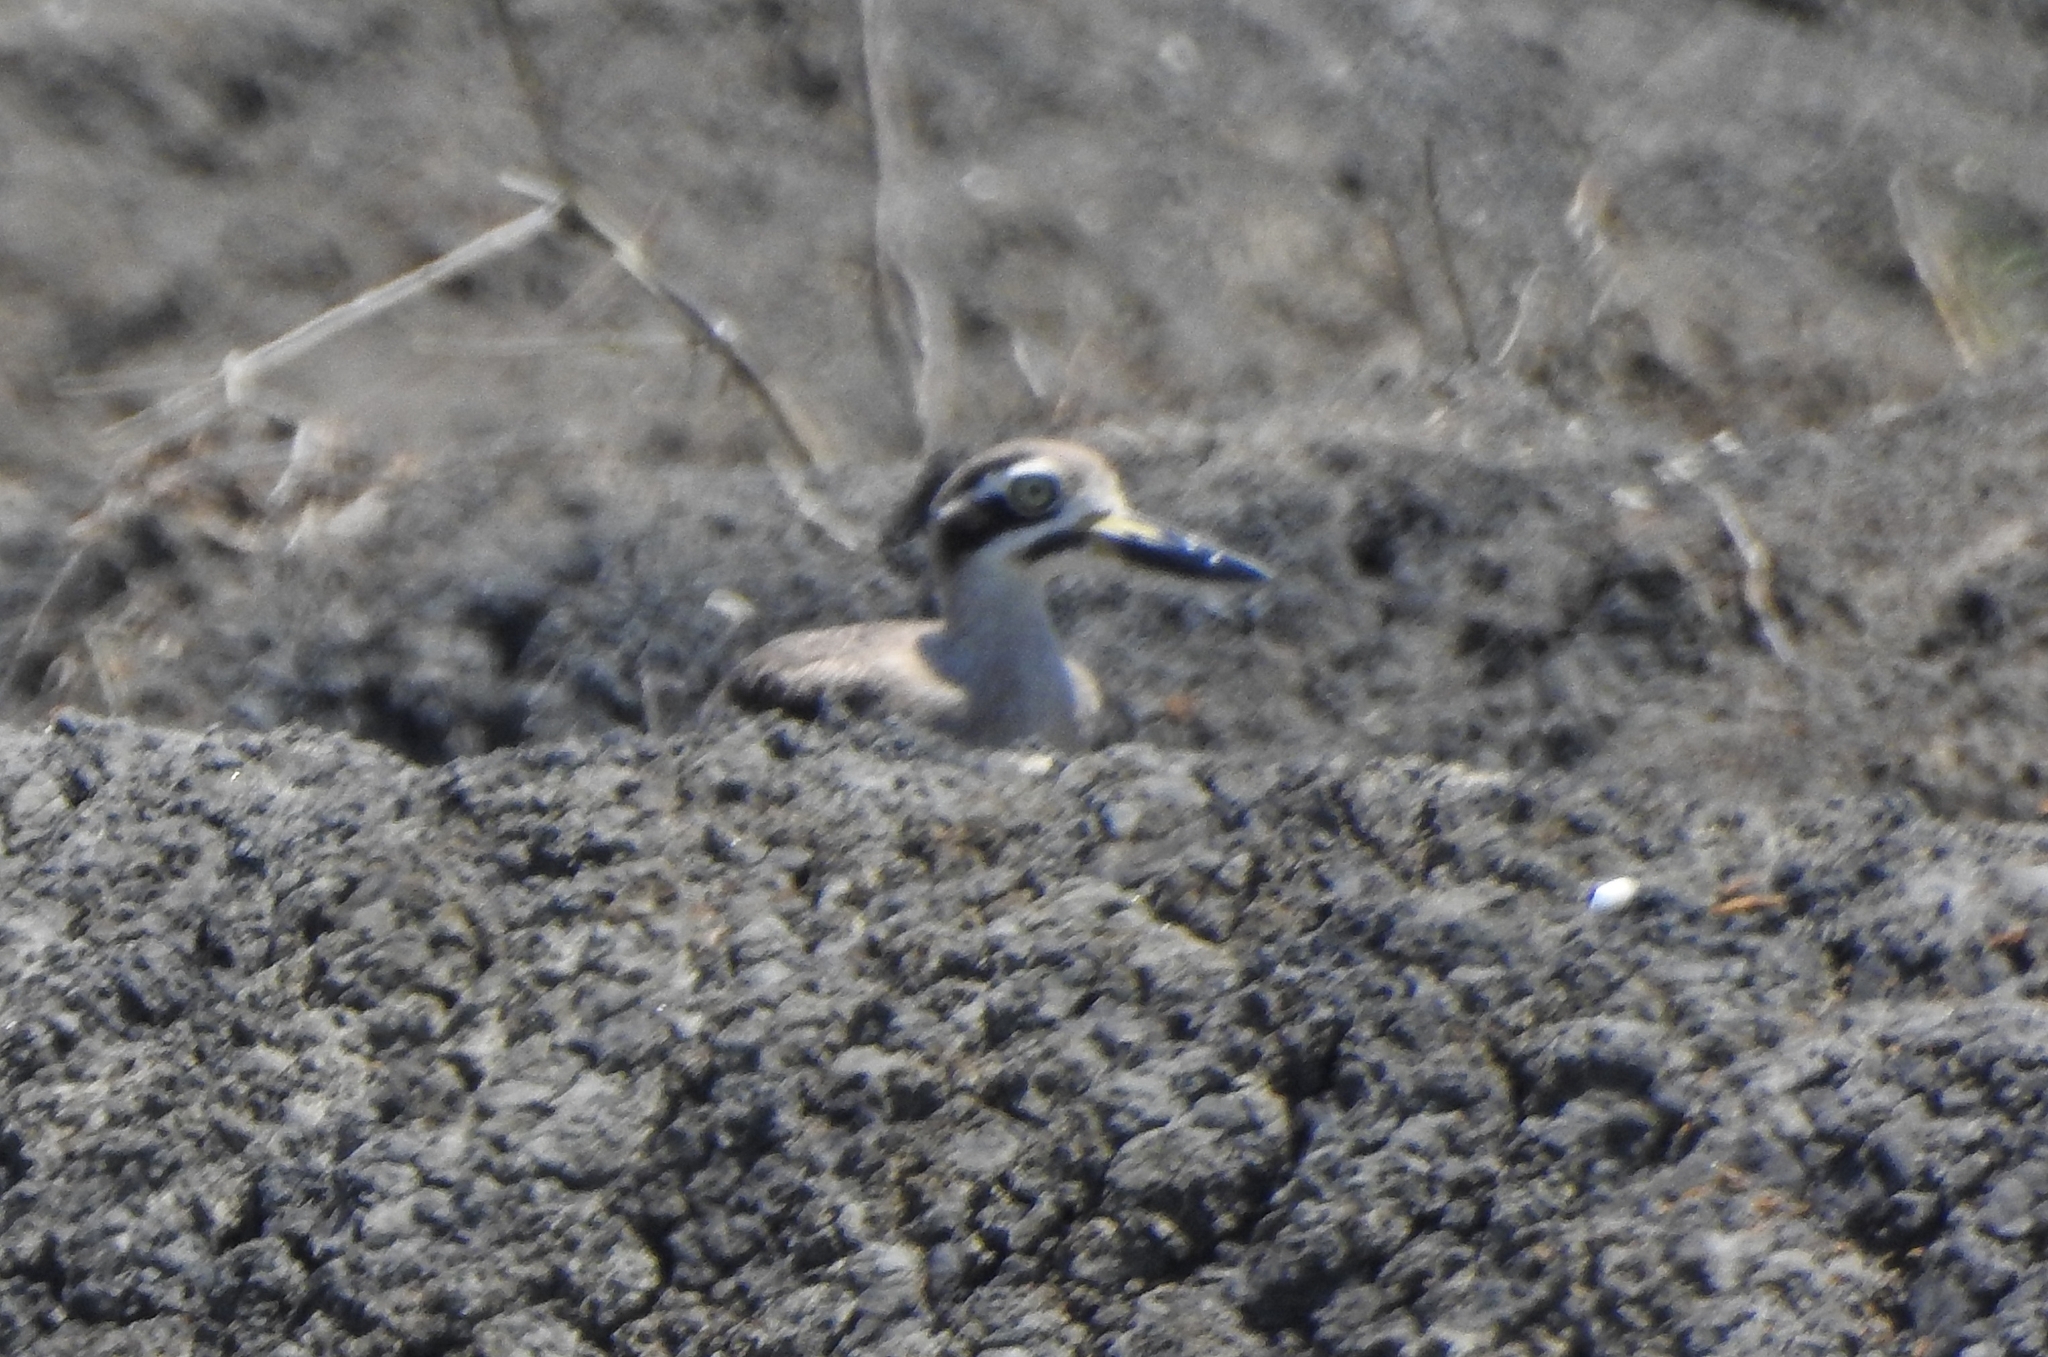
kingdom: Animalia
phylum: Chordata
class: Aves
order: Charadriiformes
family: Burhinidae
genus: Esacus
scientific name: Esacus recurvirostris
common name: Great stone-curlew
